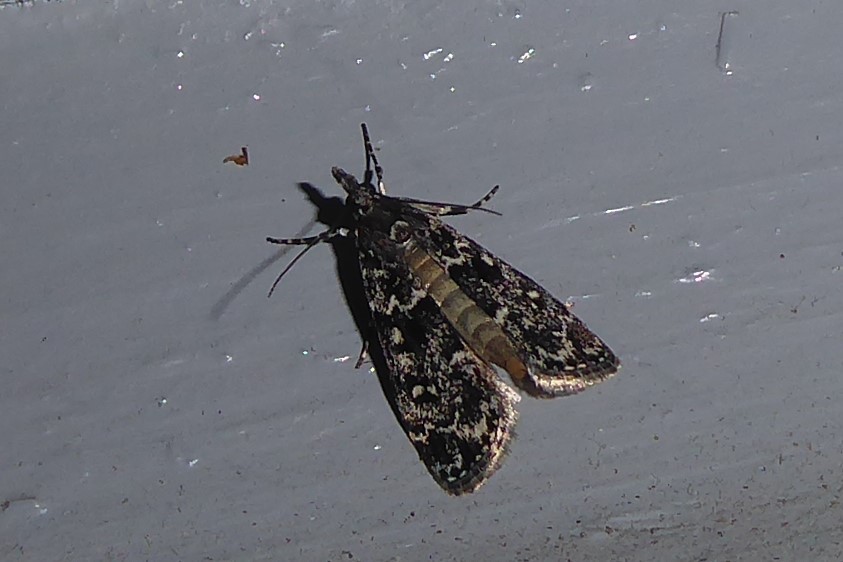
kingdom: Animalia
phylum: Arthropoda
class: Insecta
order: Lepidoptera
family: Crambidae
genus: Eudonia
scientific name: Eudonia philerga
